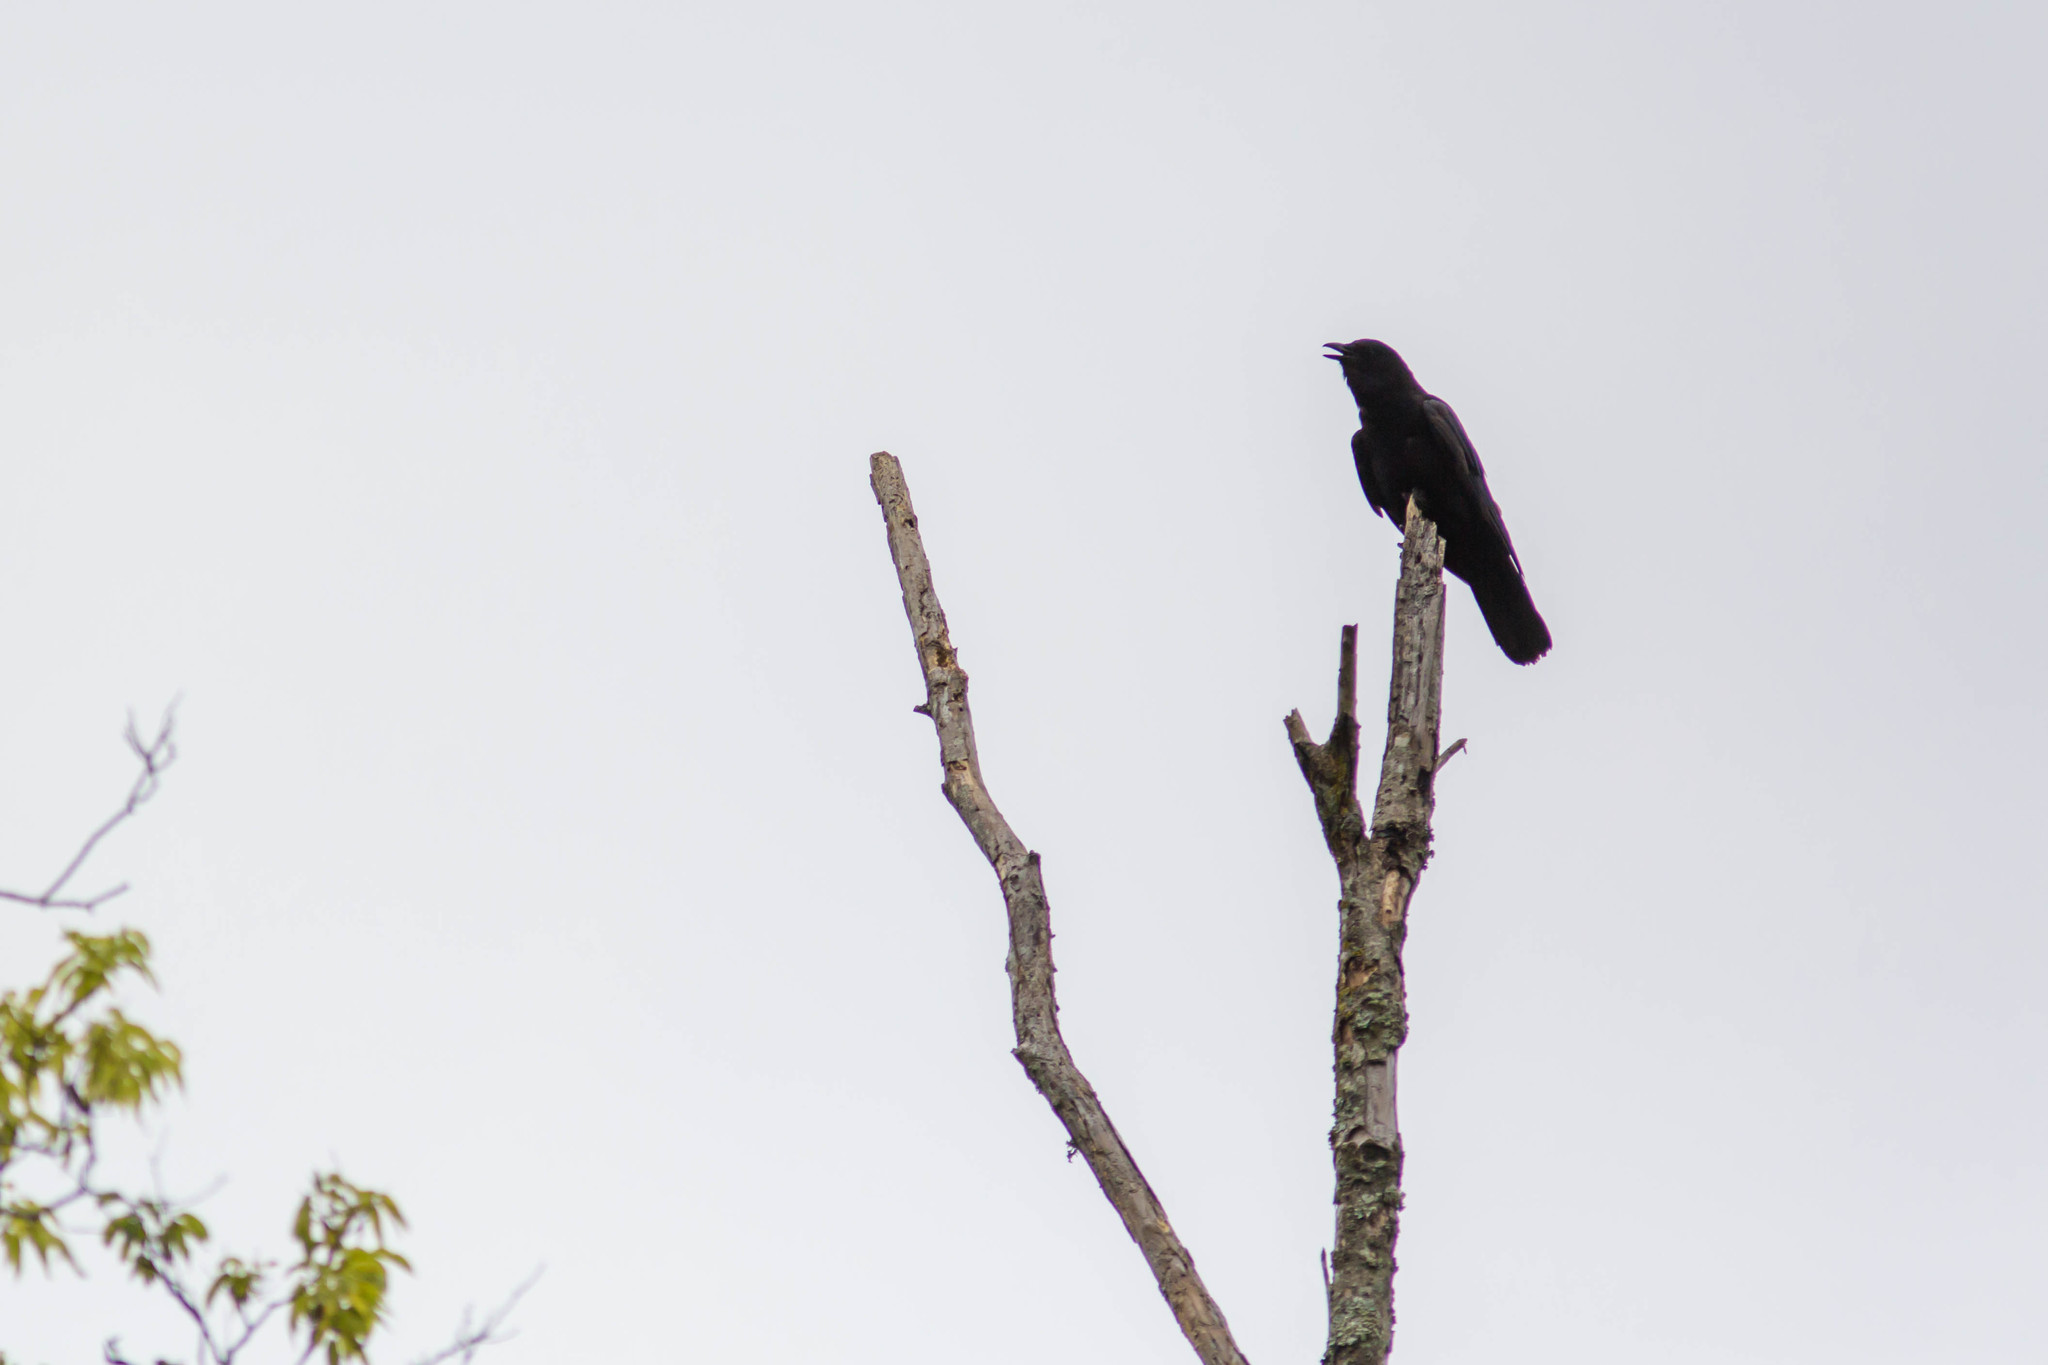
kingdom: Animalia
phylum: Chordata
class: Aves
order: Passeriformes
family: Corvidae
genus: Corvus
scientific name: Corvus ossifragus
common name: Fish crow
